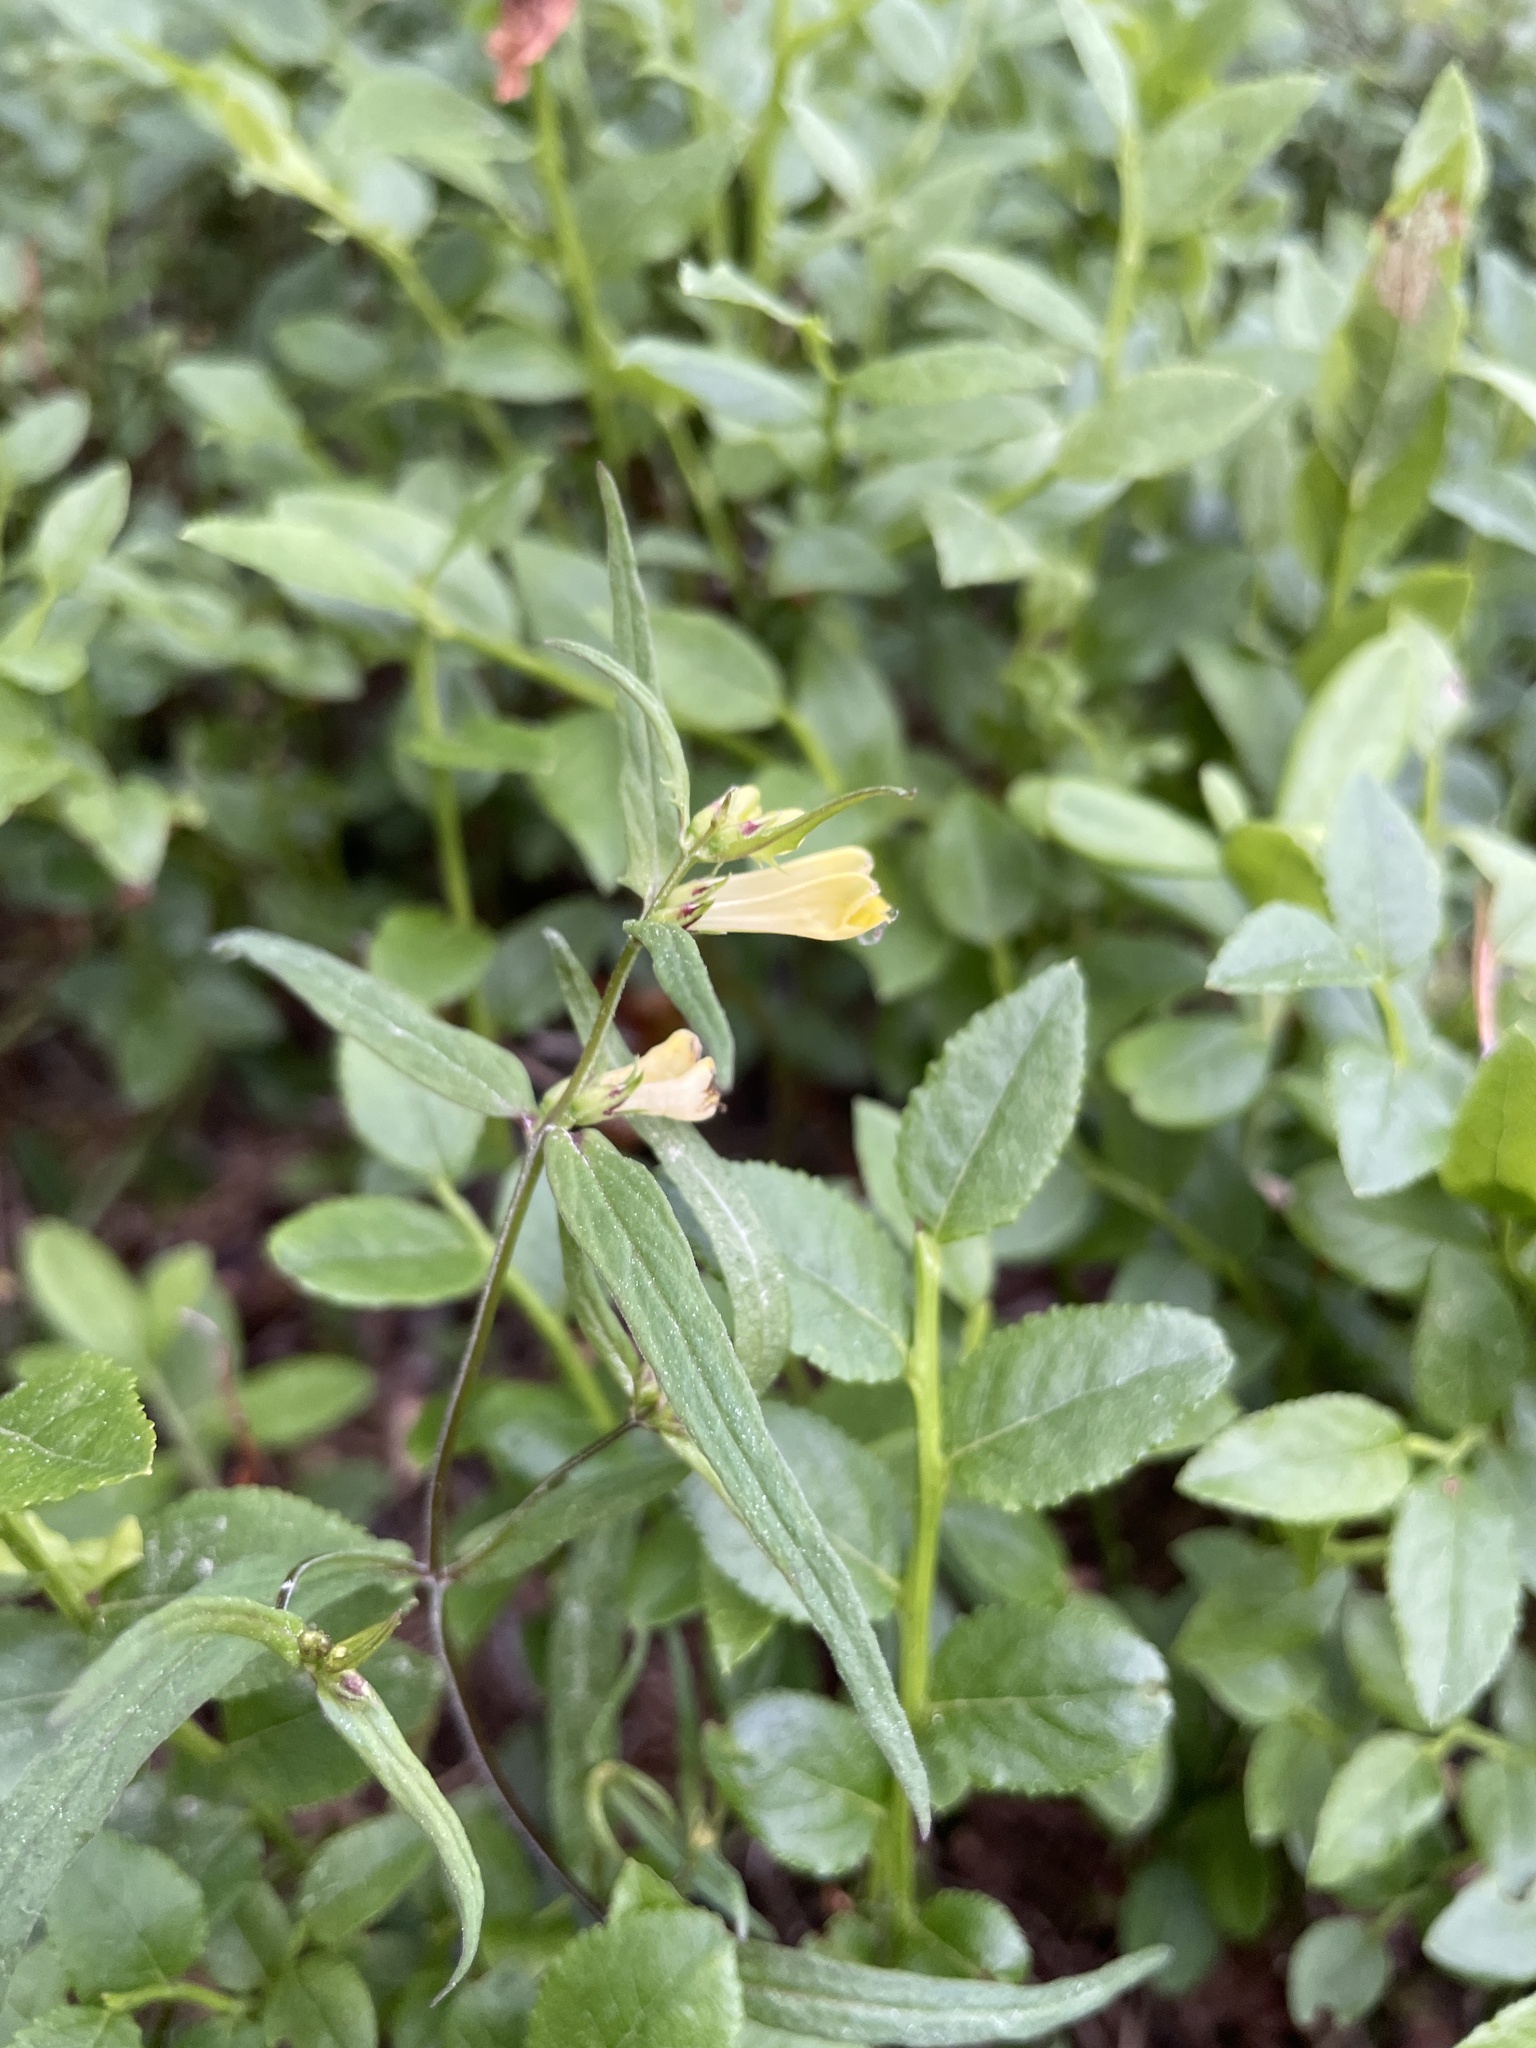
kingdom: Plantae
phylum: Tracheophyta
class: Magnoliopsida
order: Lamiales
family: Orobanchaceae
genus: Melampyrum
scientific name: Melampyrum pratense
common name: Common cow-wheat
